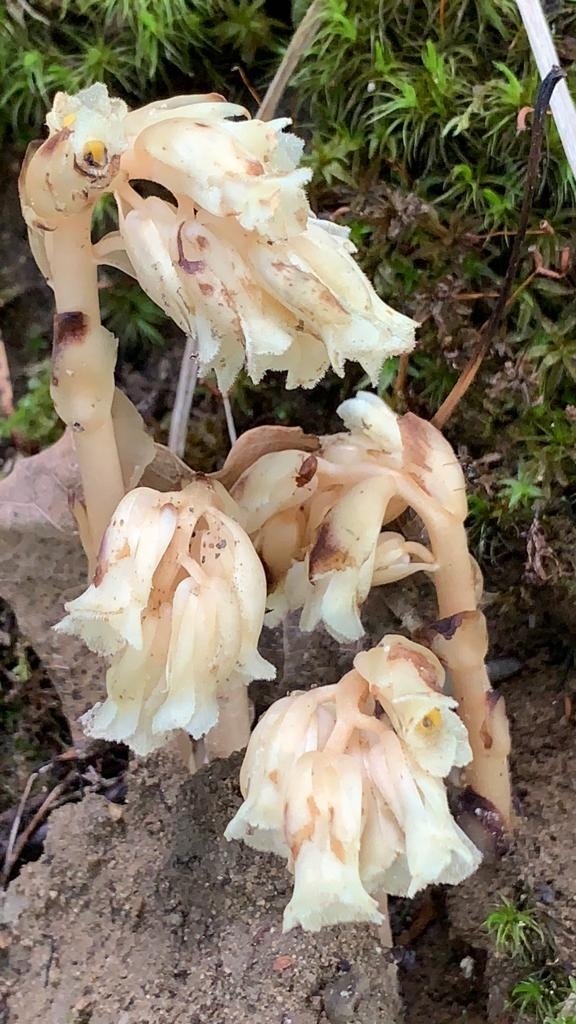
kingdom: Plantae
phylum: Tracheophyta
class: Magnoliopsida
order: Ericales
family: Ericaceae
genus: Hypopitys
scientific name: Hypopitys monotropa
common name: Yellow bird's-nest
